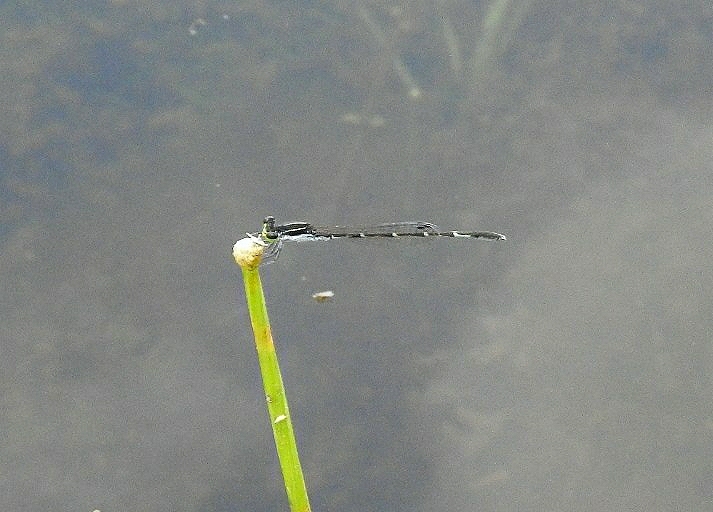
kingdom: Animalia
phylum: Arthropoda
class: Insecta
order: Odonata
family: Coenagrionidae
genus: Agriocnemis
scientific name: Agriocnemis splendidissima
